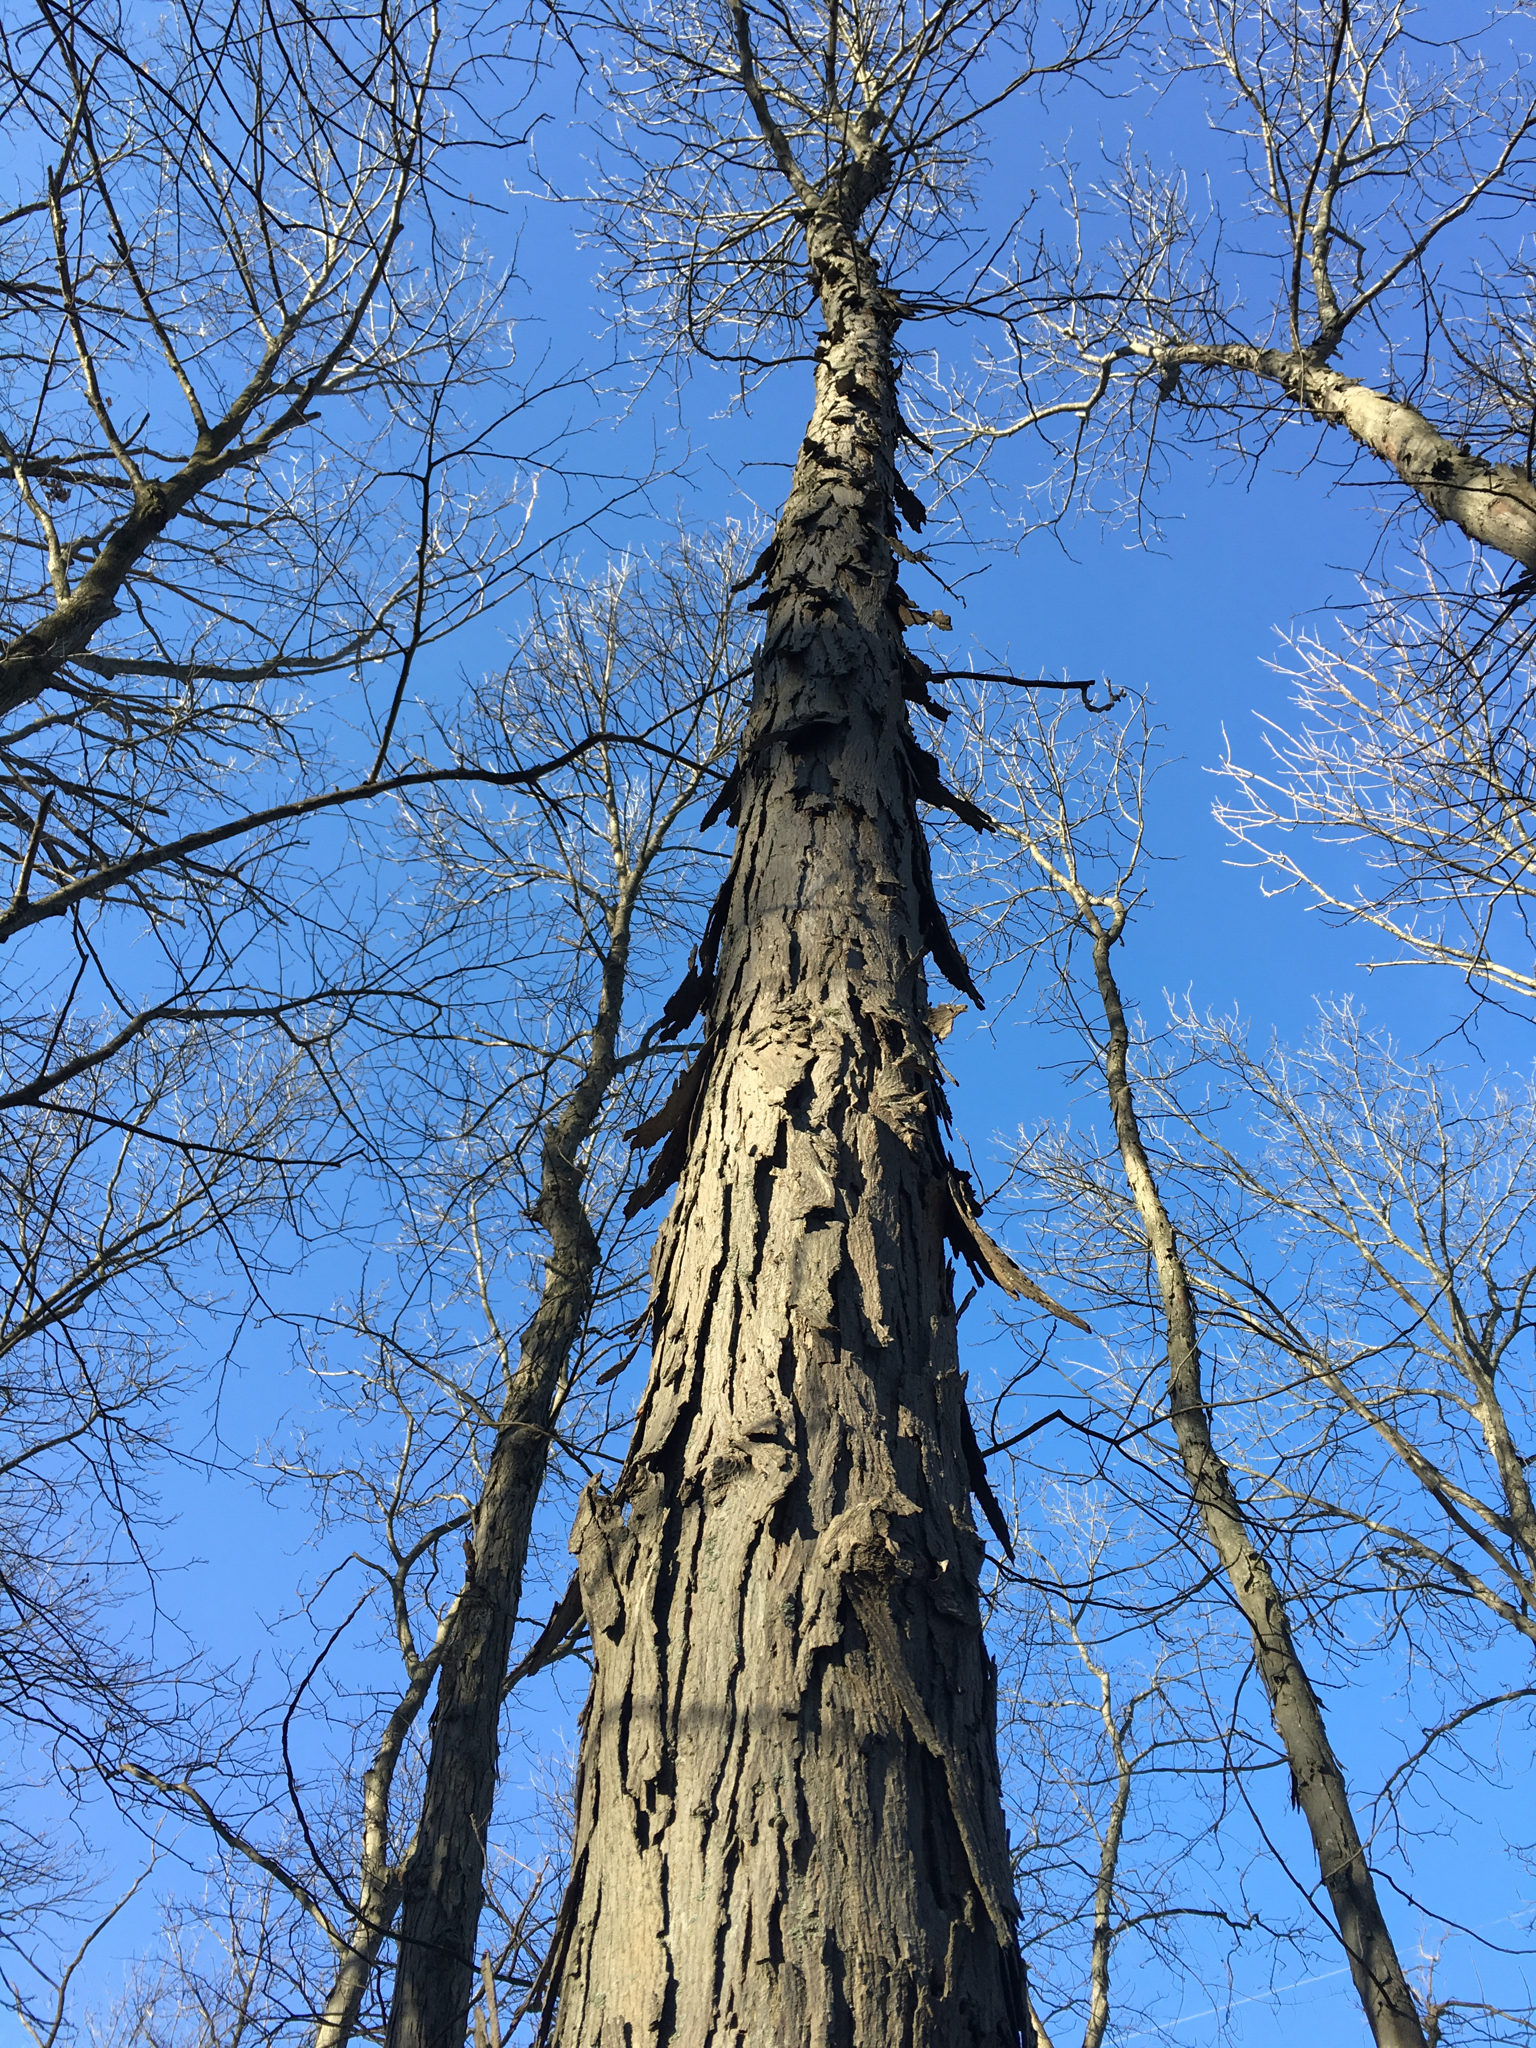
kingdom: Plantae
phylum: Tracheophyta
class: Magnoliopsida
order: Fagales
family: Juglandaceae
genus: Carya
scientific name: Carya ovata
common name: Shagbark hickory
